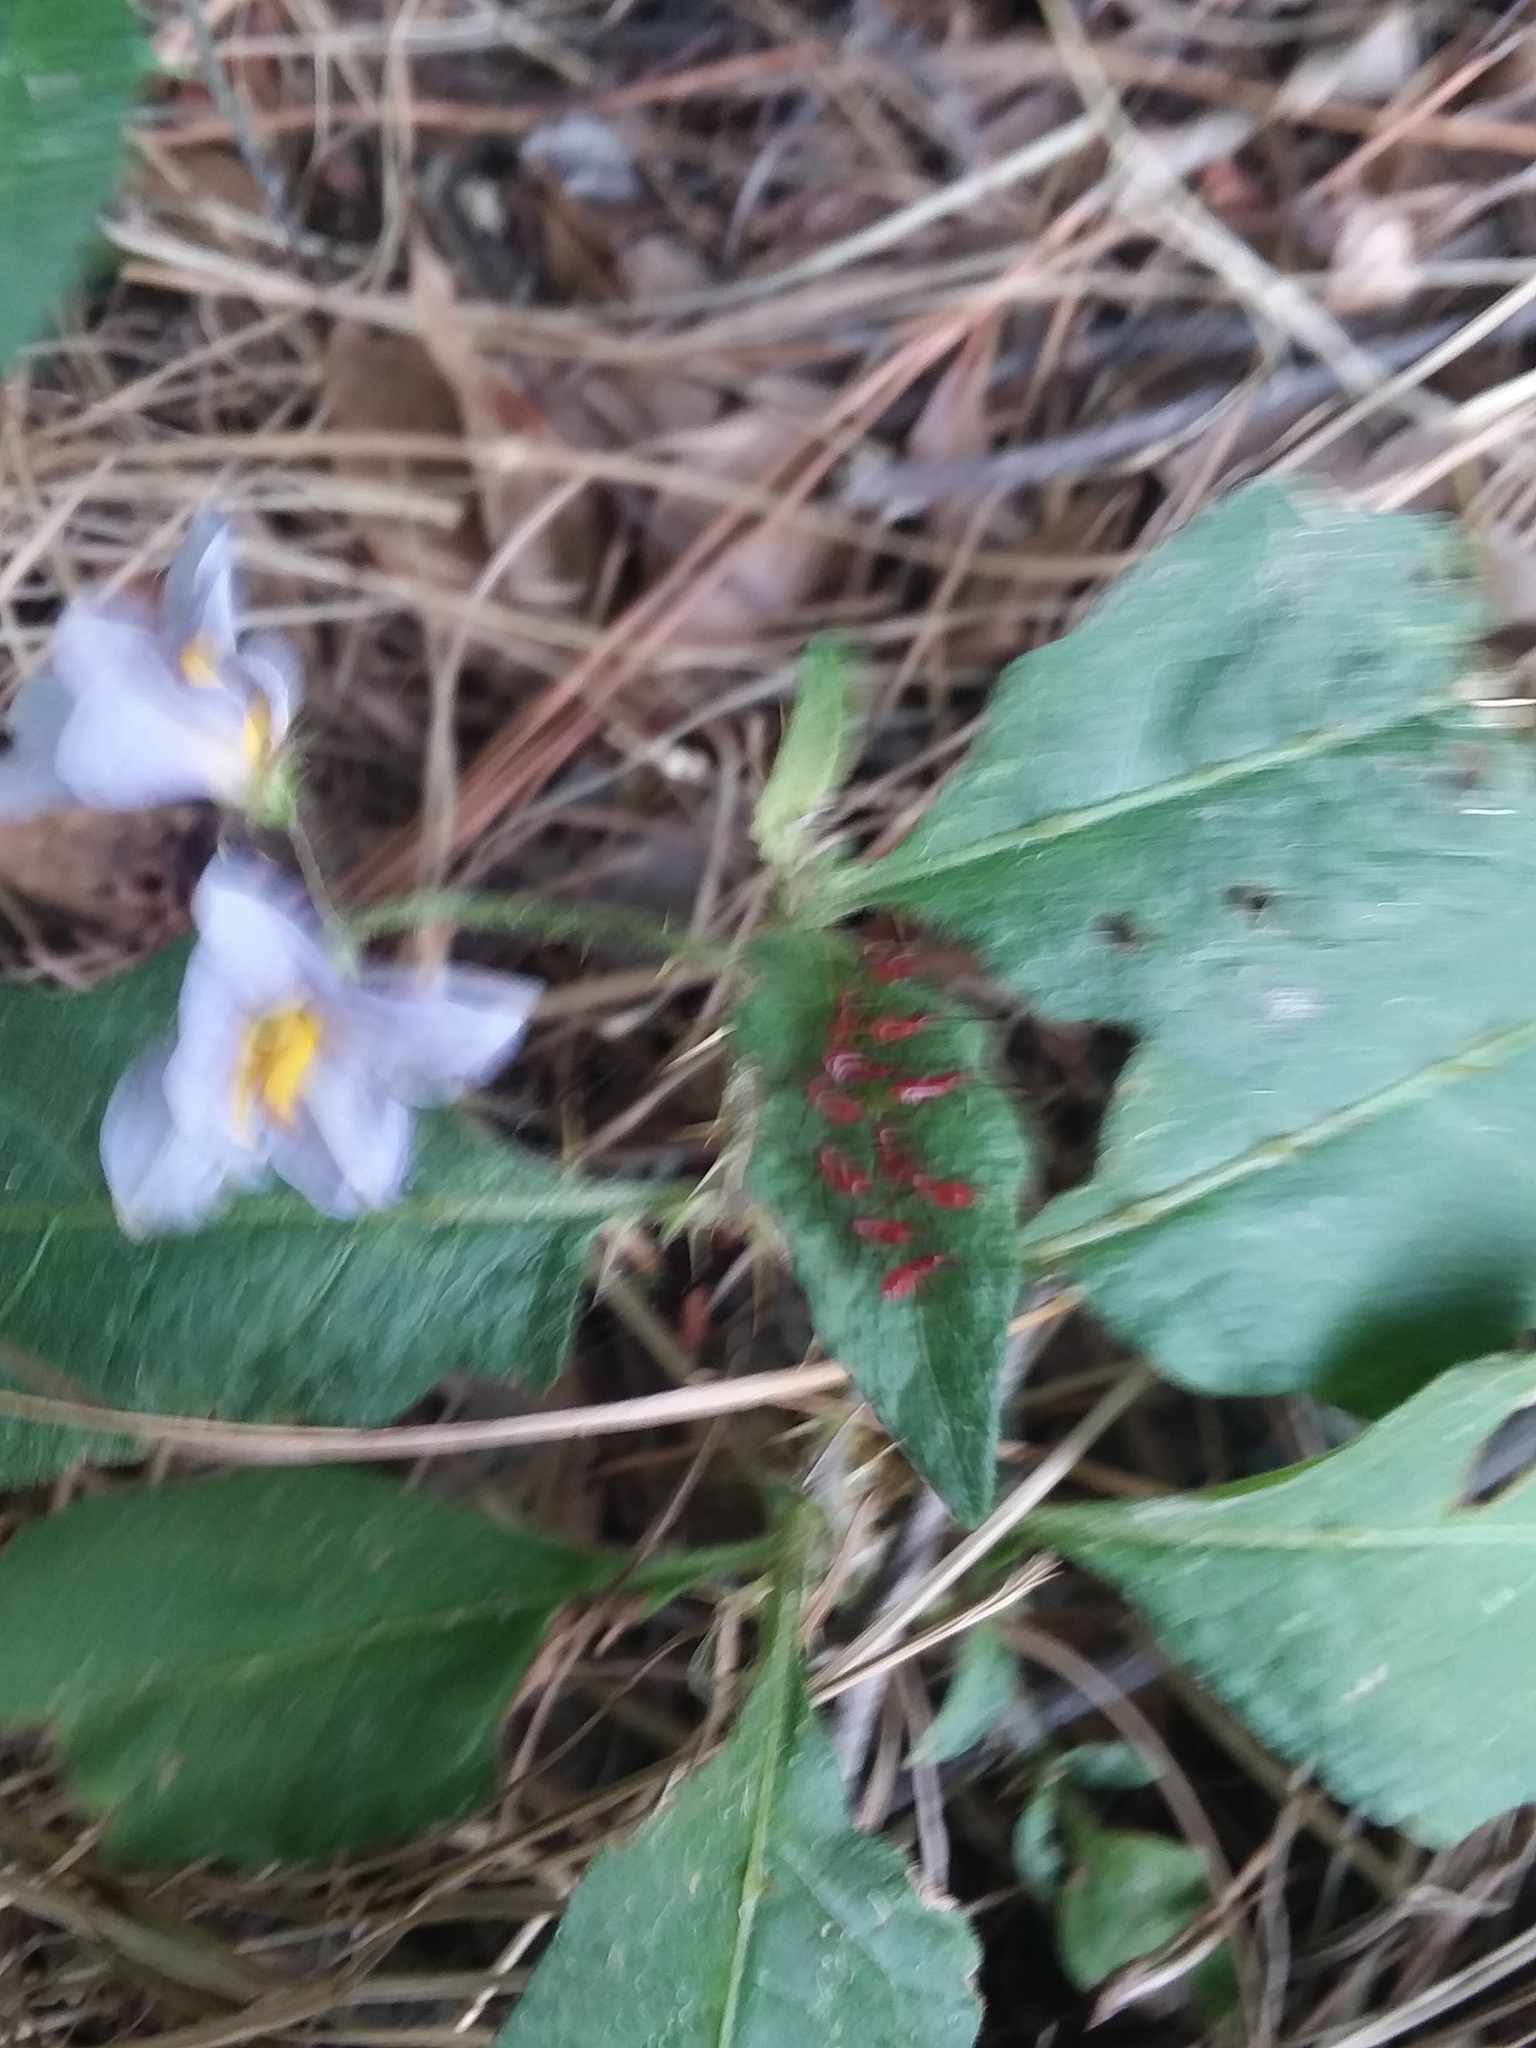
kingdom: Plantae
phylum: Tracheophyta
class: Magnoliopsida
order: Solanales
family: Solanaceae
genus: Solanum
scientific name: Solanum carolinense
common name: Horse-nettle
